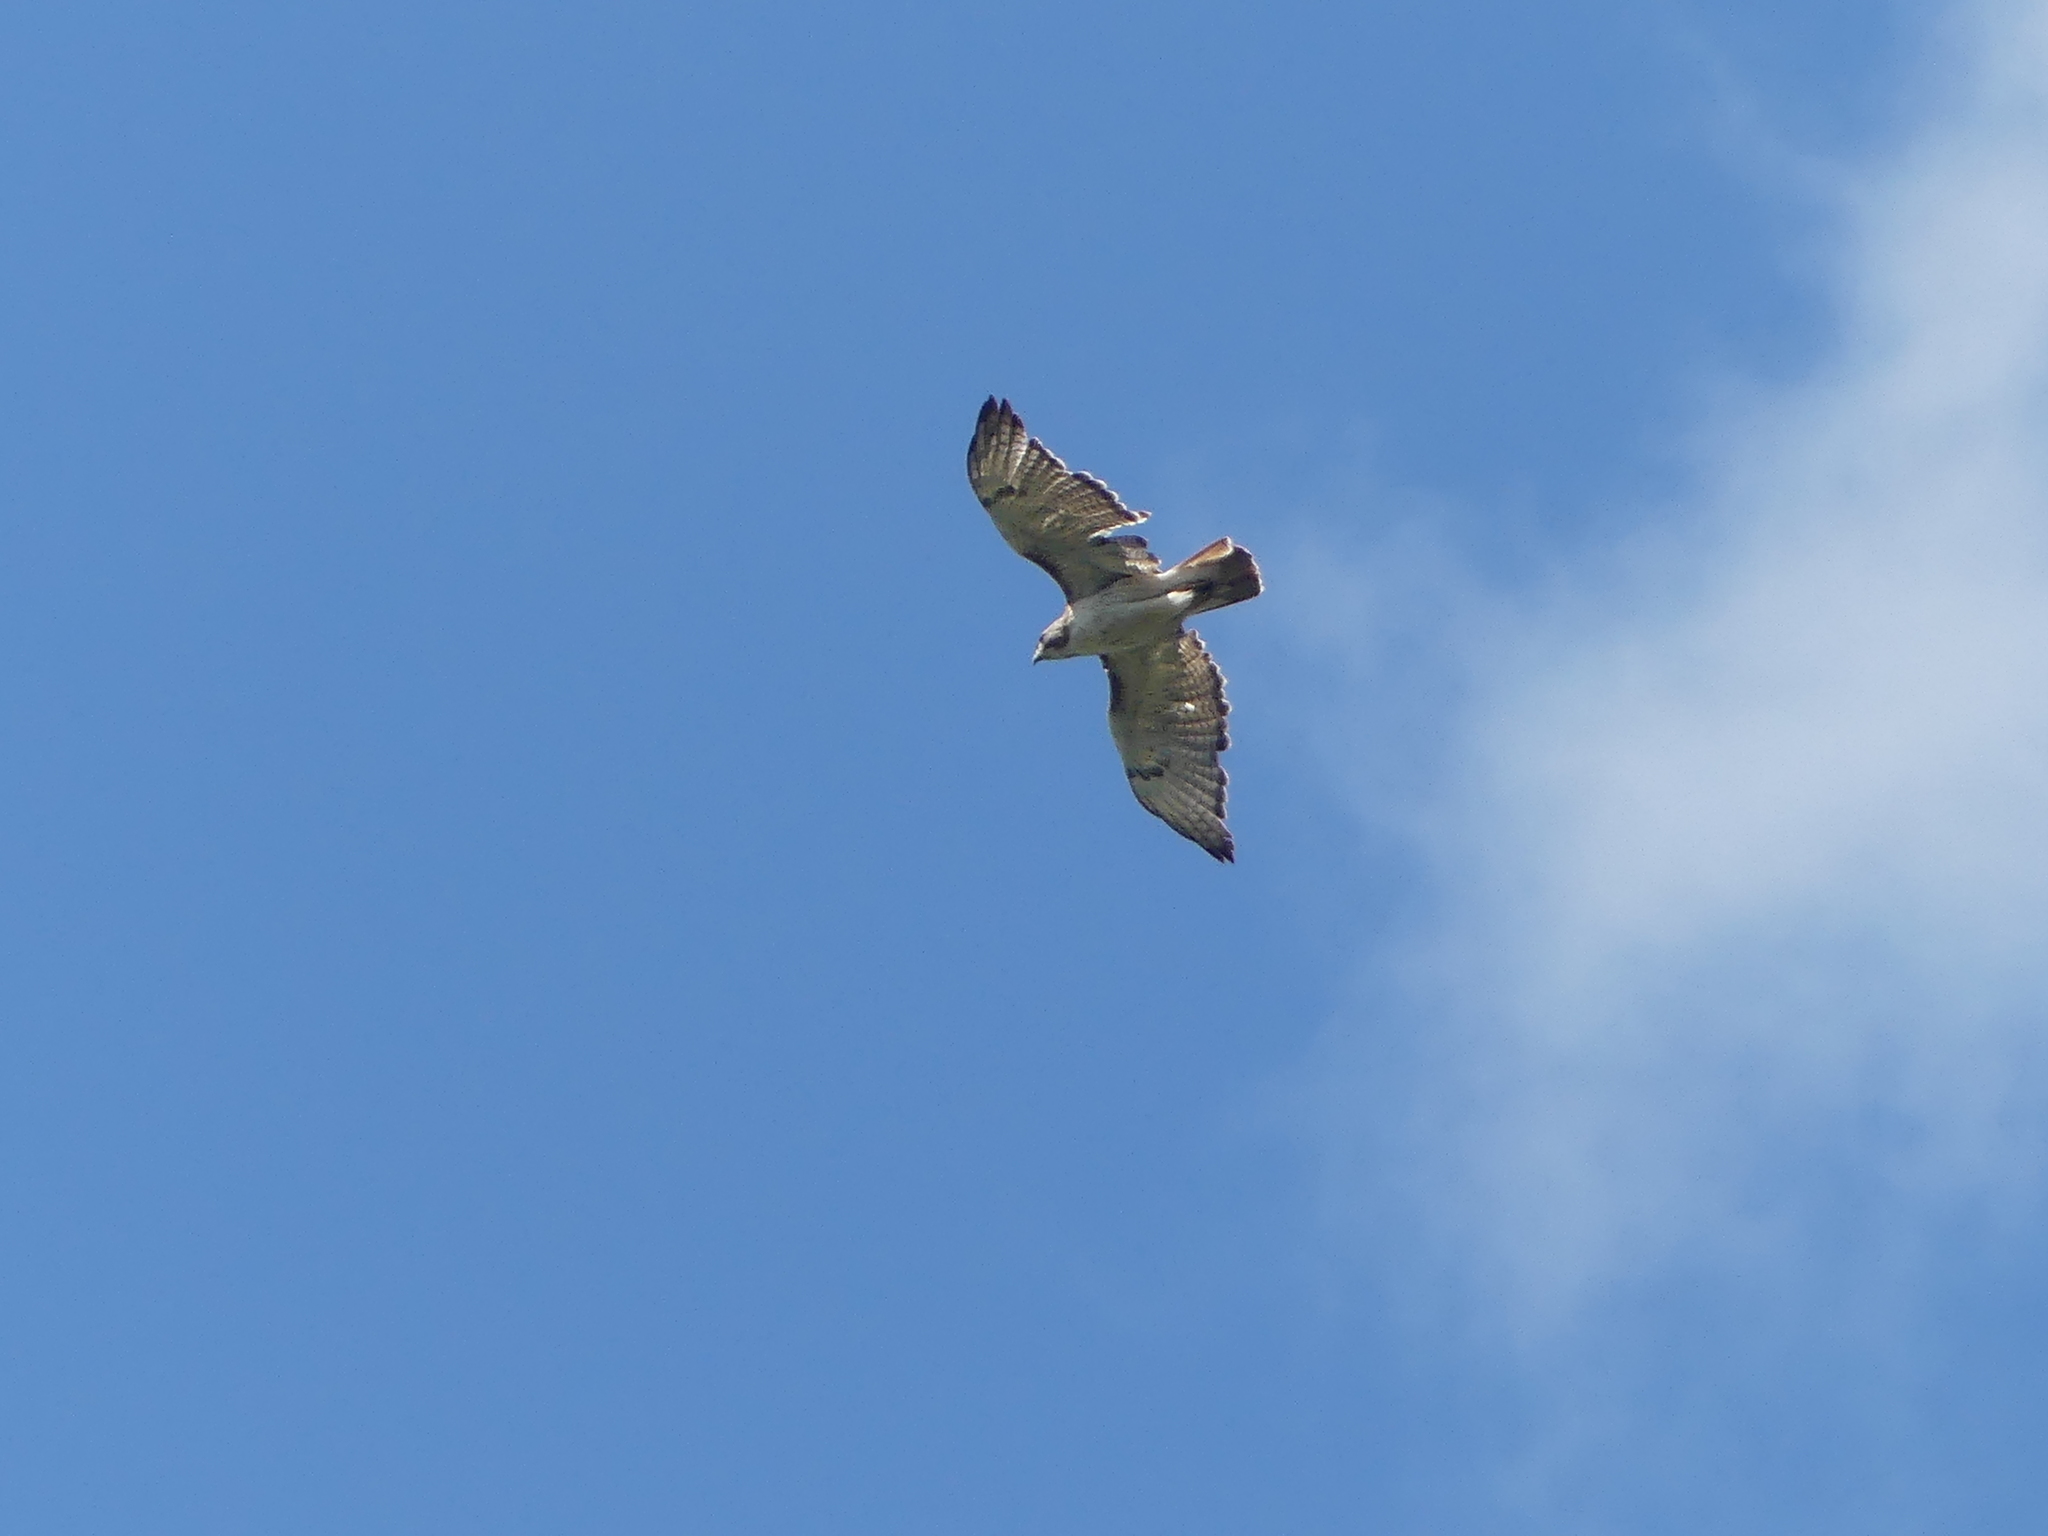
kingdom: Animalia
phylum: Chordata
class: Aves
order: Accipitriformes
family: Accipitridae
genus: Buteo
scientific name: Buteo jamaicensis
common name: Red-tailed hawk
